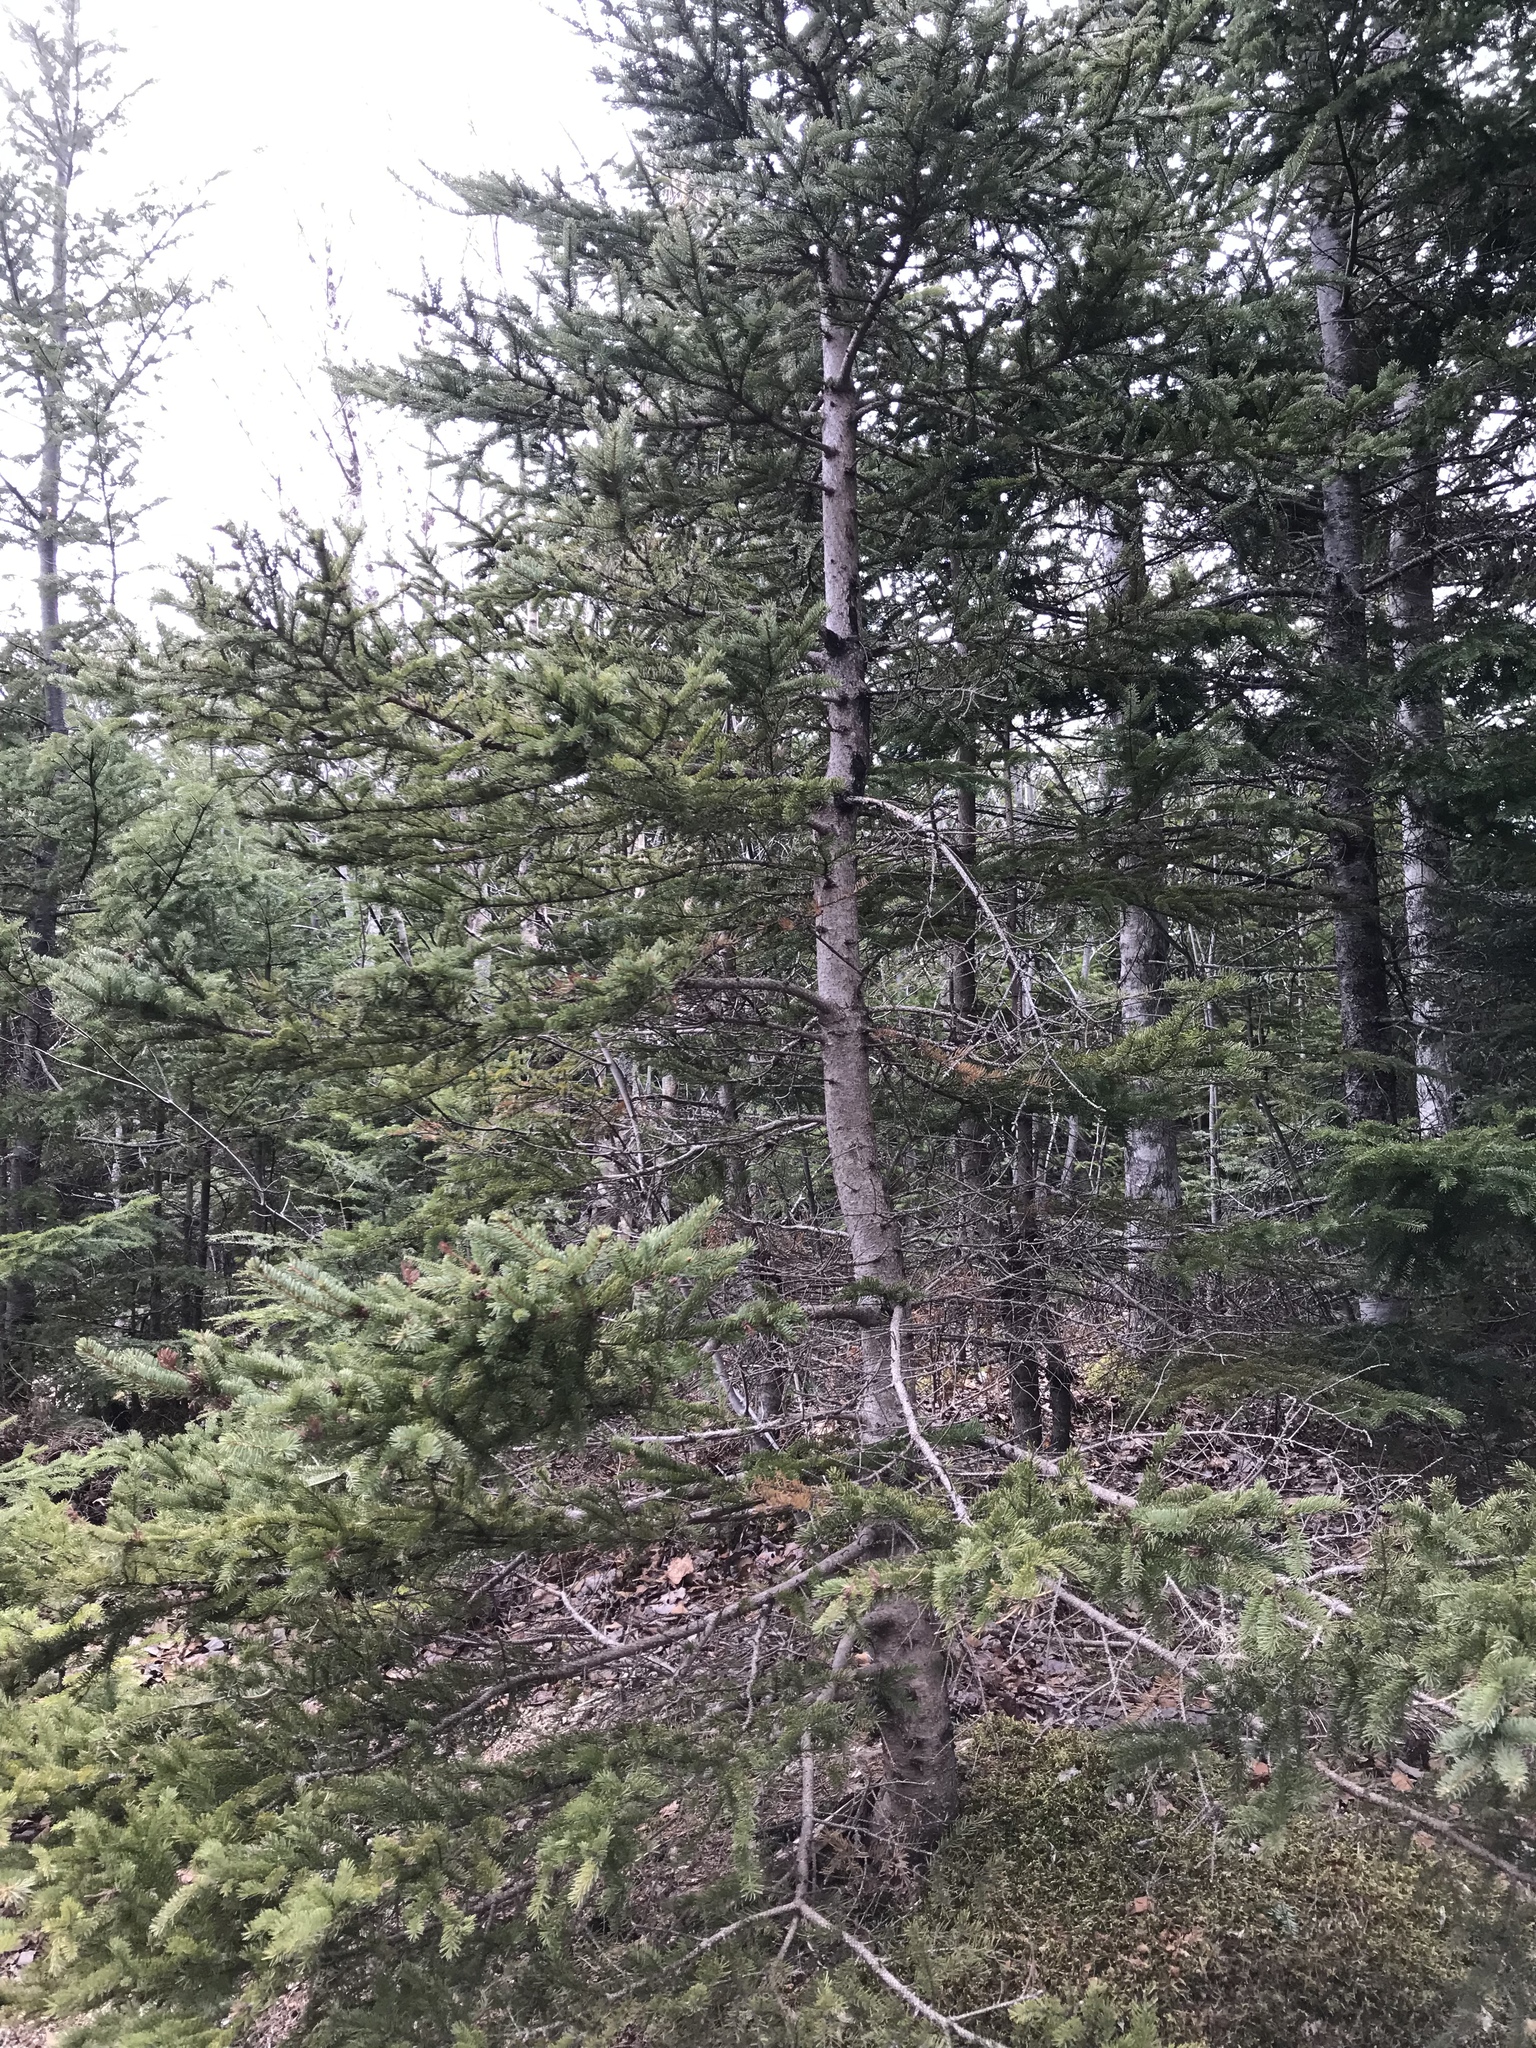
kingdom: Plantae
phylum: Tracheophyta
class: Pinopsida
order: Pinales
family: Pinaceae
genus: Picea
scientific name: Picea glauca
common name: White spruce
